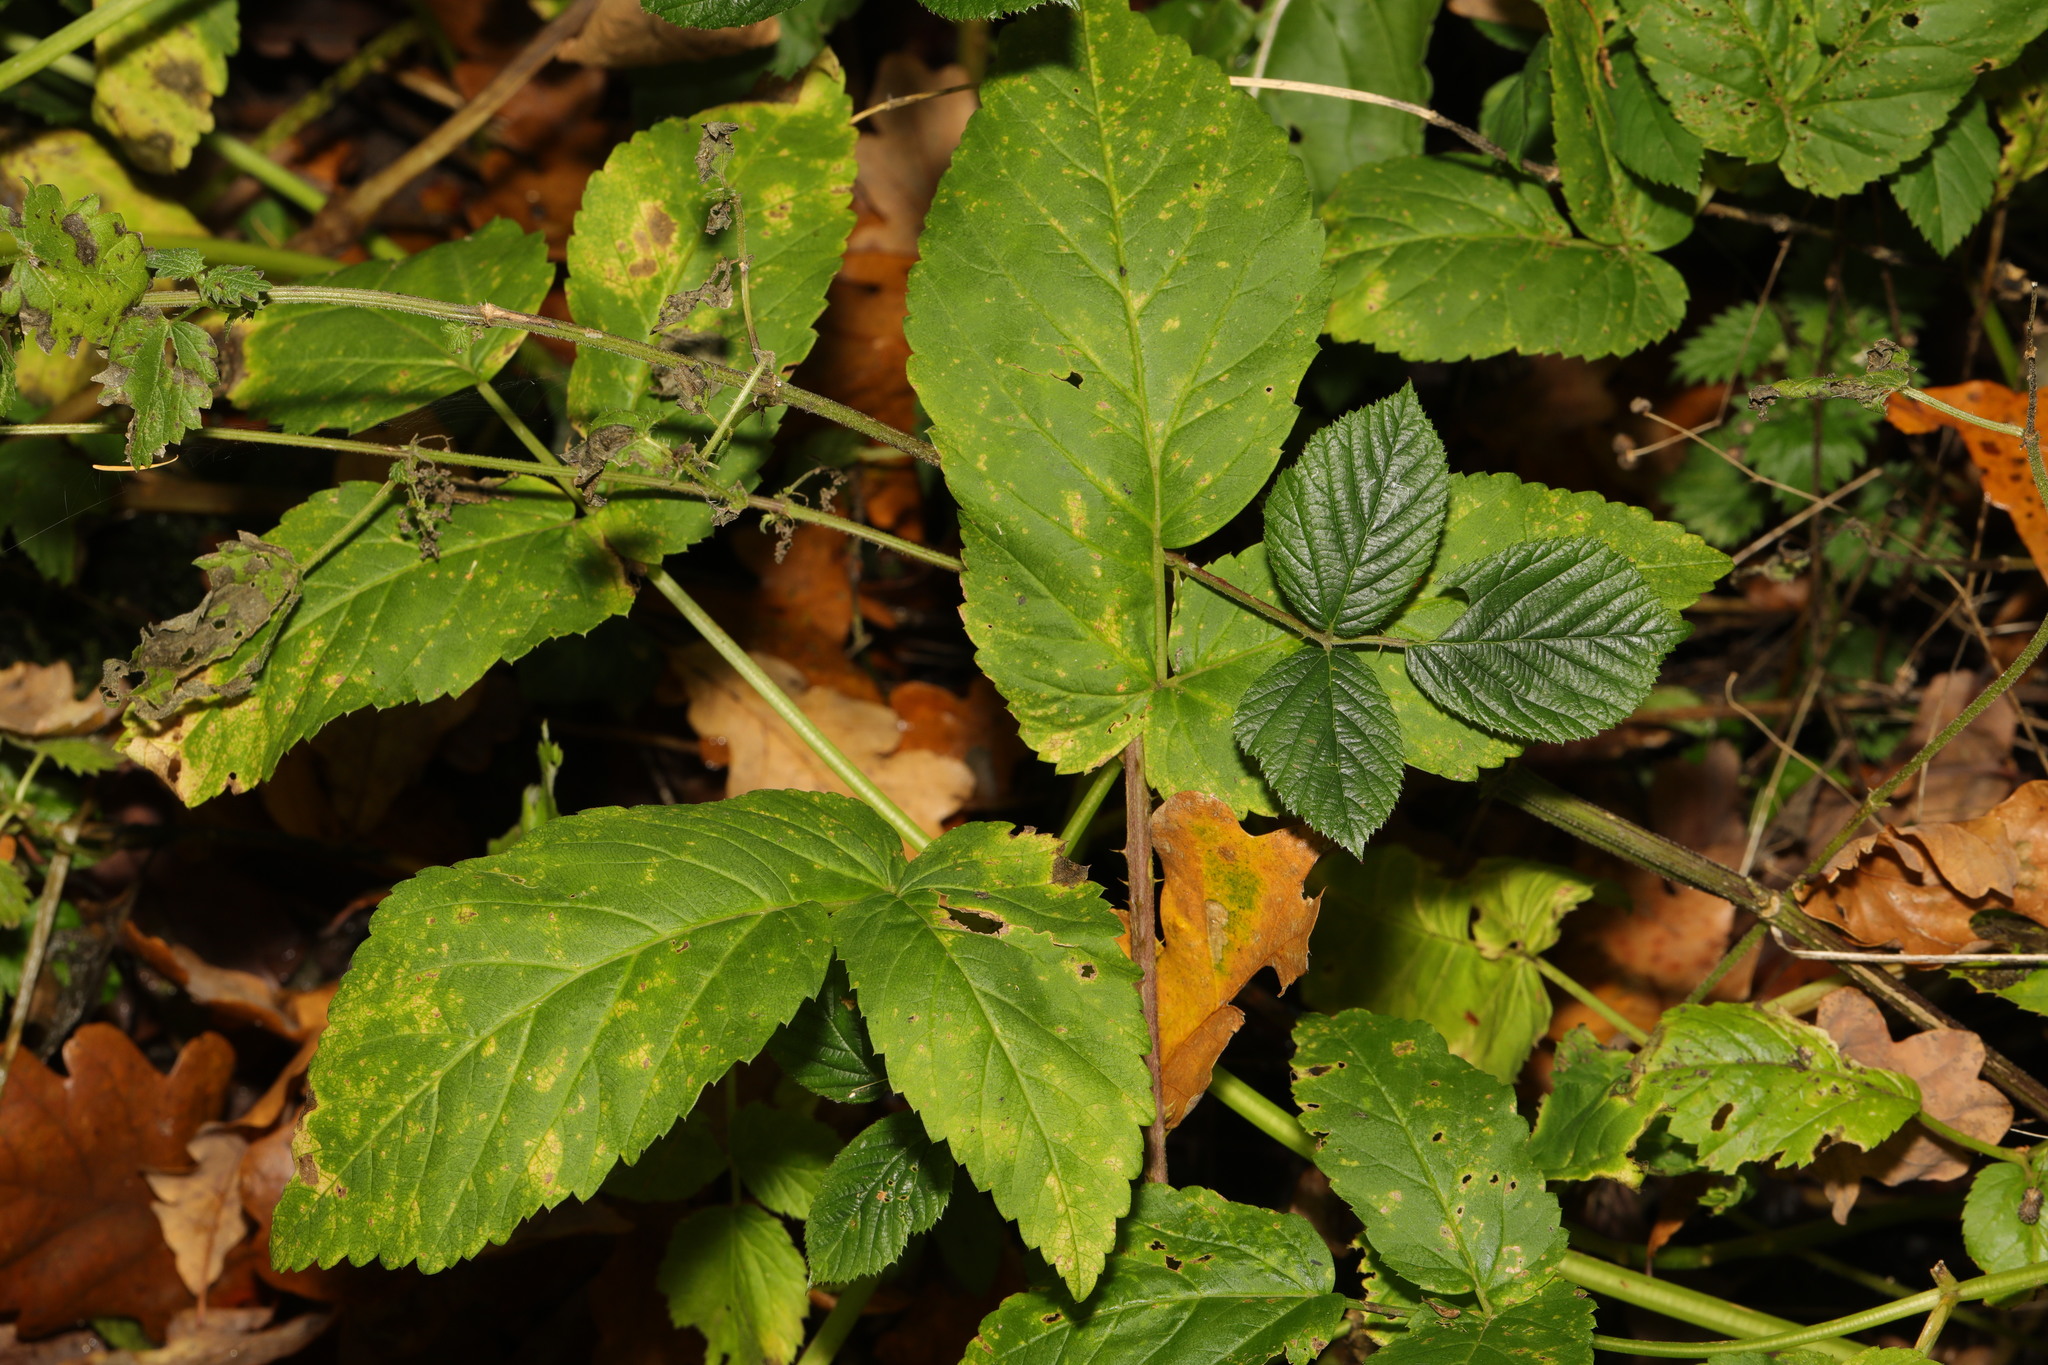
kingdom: Plantae
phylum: Tracheophyta
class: Magnoliopsida
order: Apiales
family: Apiaceae
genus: Aegopodium
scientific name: Aegopodium podagraria
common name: Ground-elder
